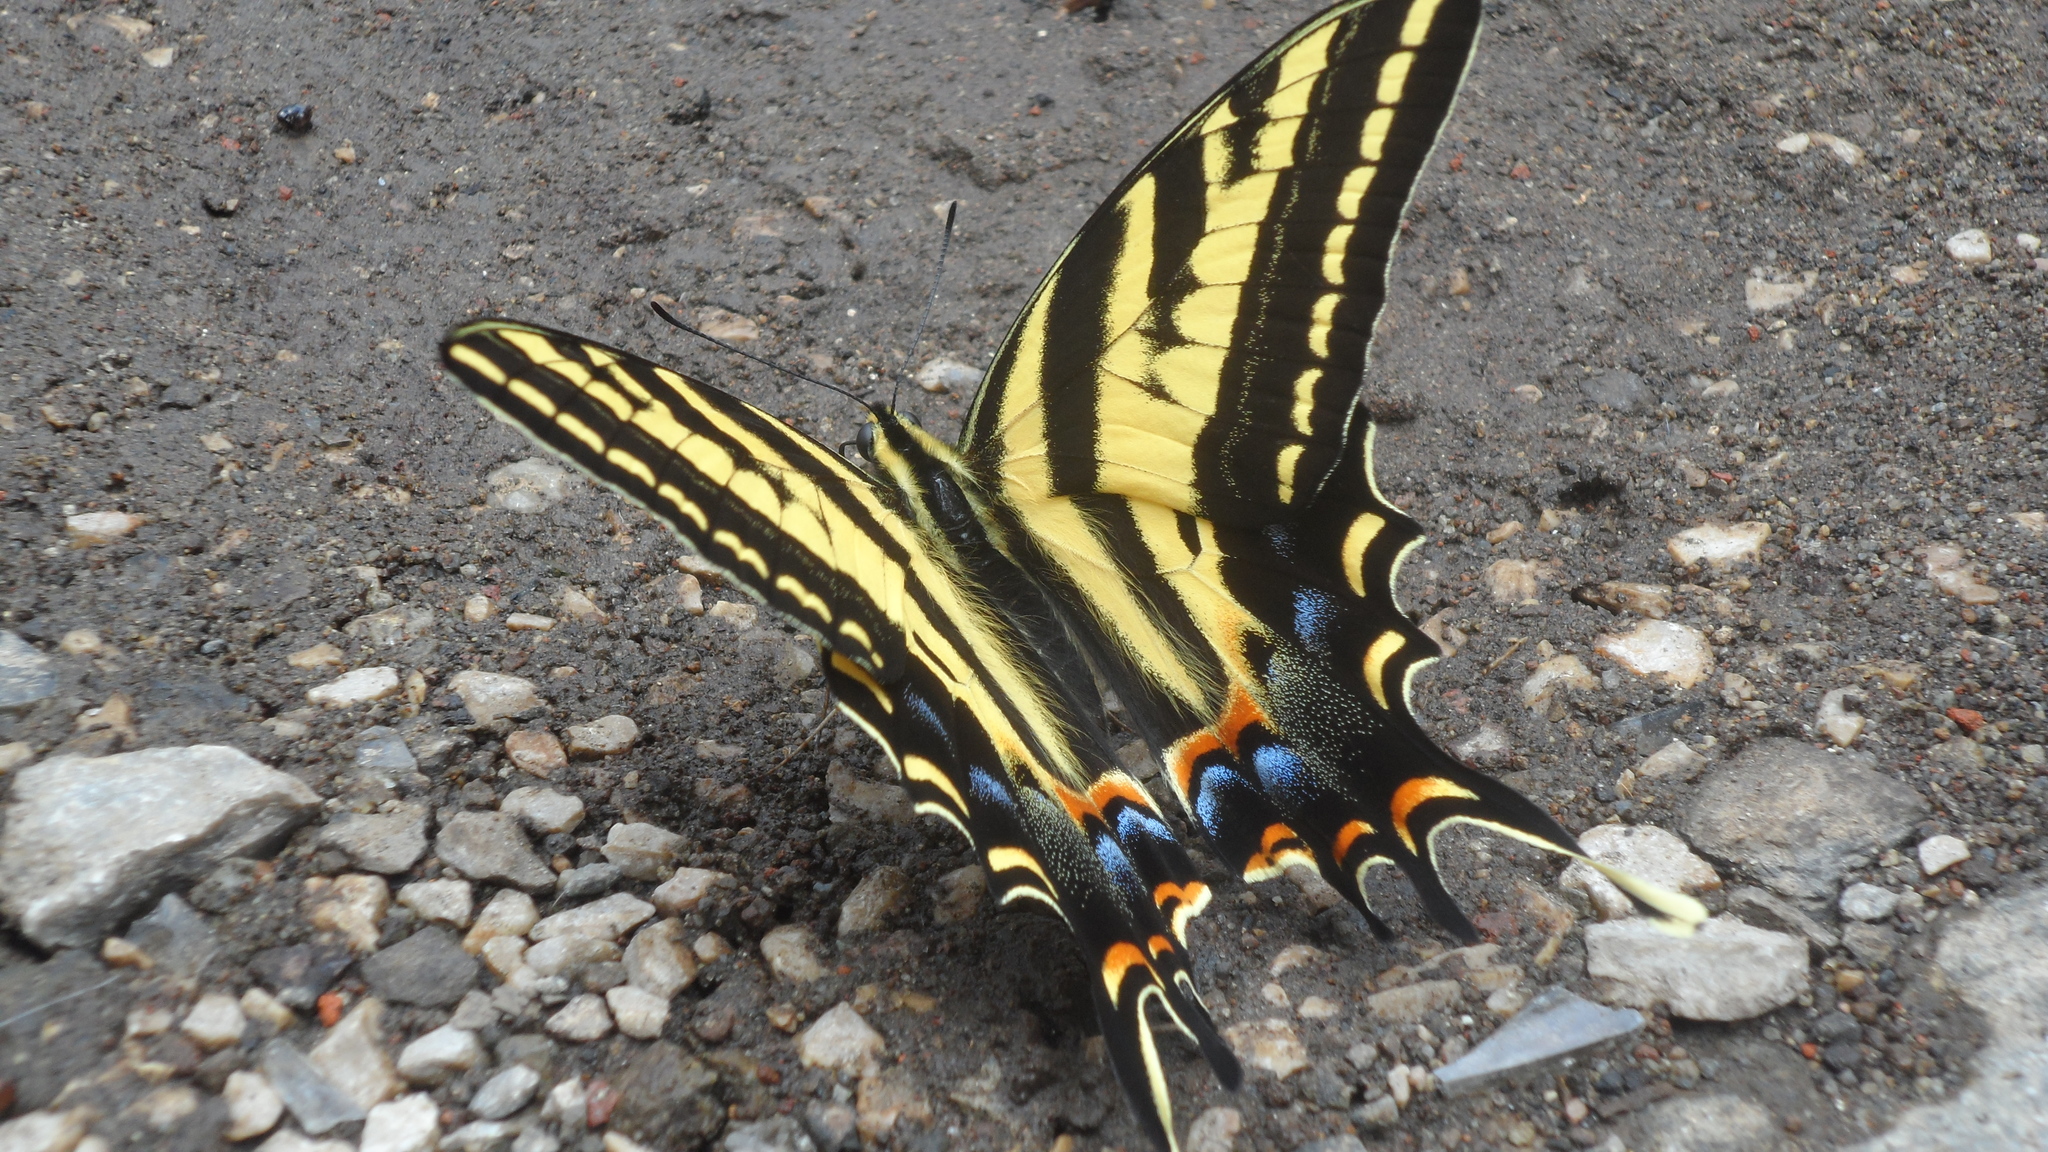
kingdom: Animalia
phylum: Arthropoda
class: Insecta
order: Lepidoptera
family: Papilionidae
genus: Papilio
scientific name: Papilio pilumnus
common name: Three-tailed tiger swallowtail
